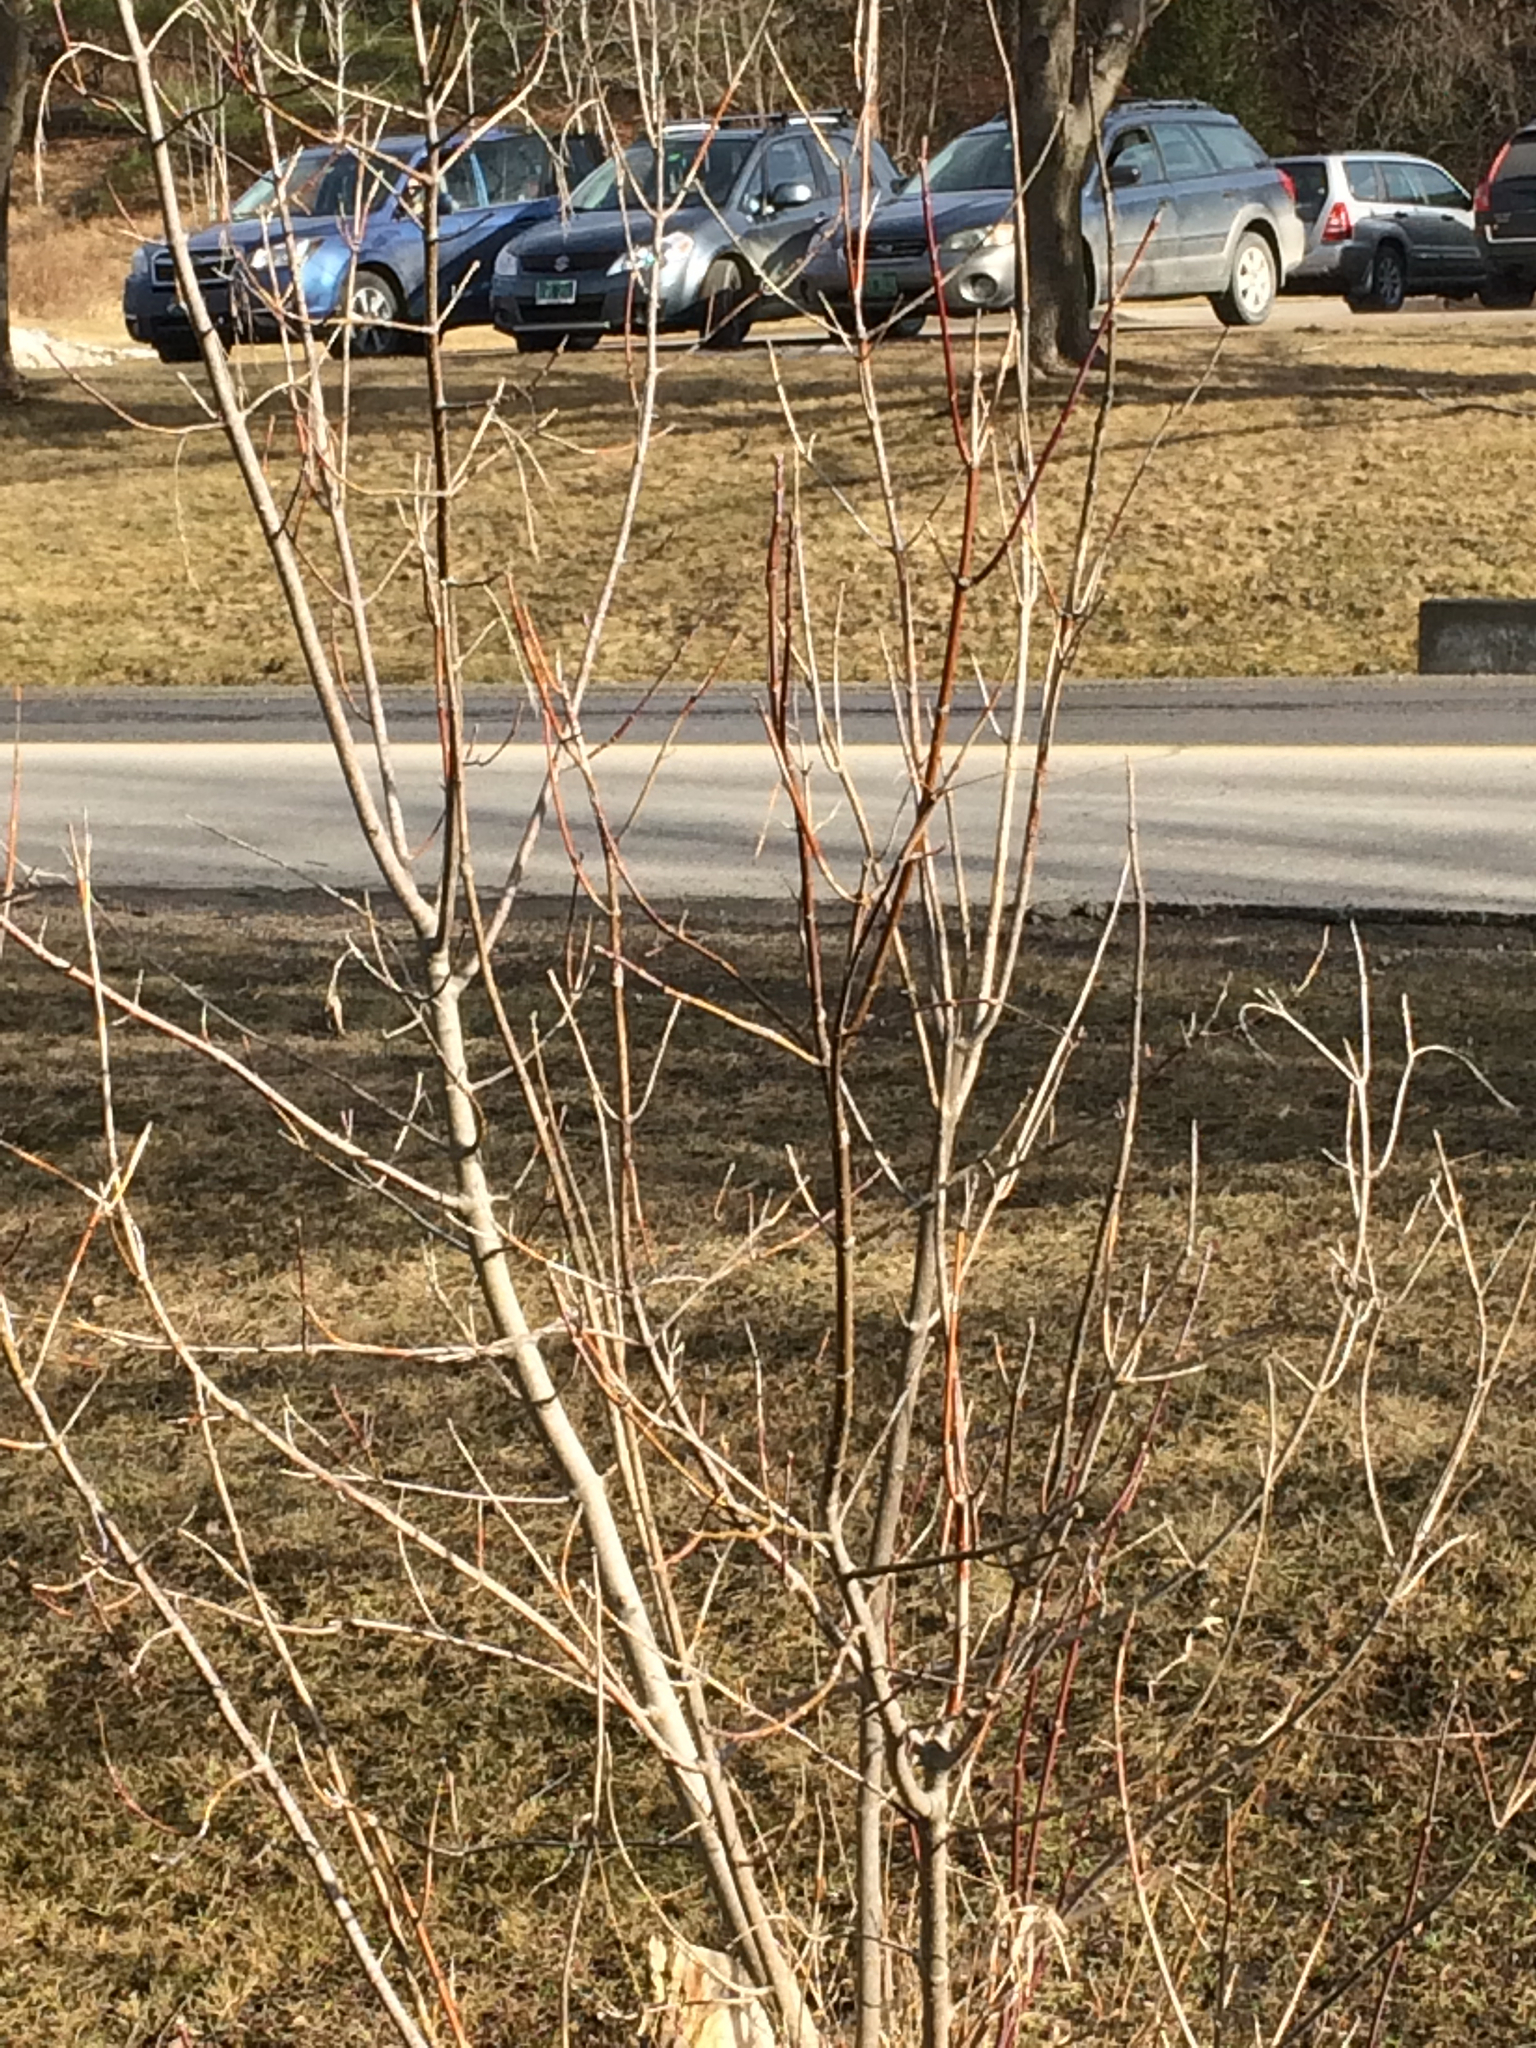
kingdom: Plantae
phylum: Tracheophyta
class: Magnoliopsida
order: Sapindales
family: Sapindaceae
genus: Acer
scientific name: Acer negundo
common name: Ashleaf maple
